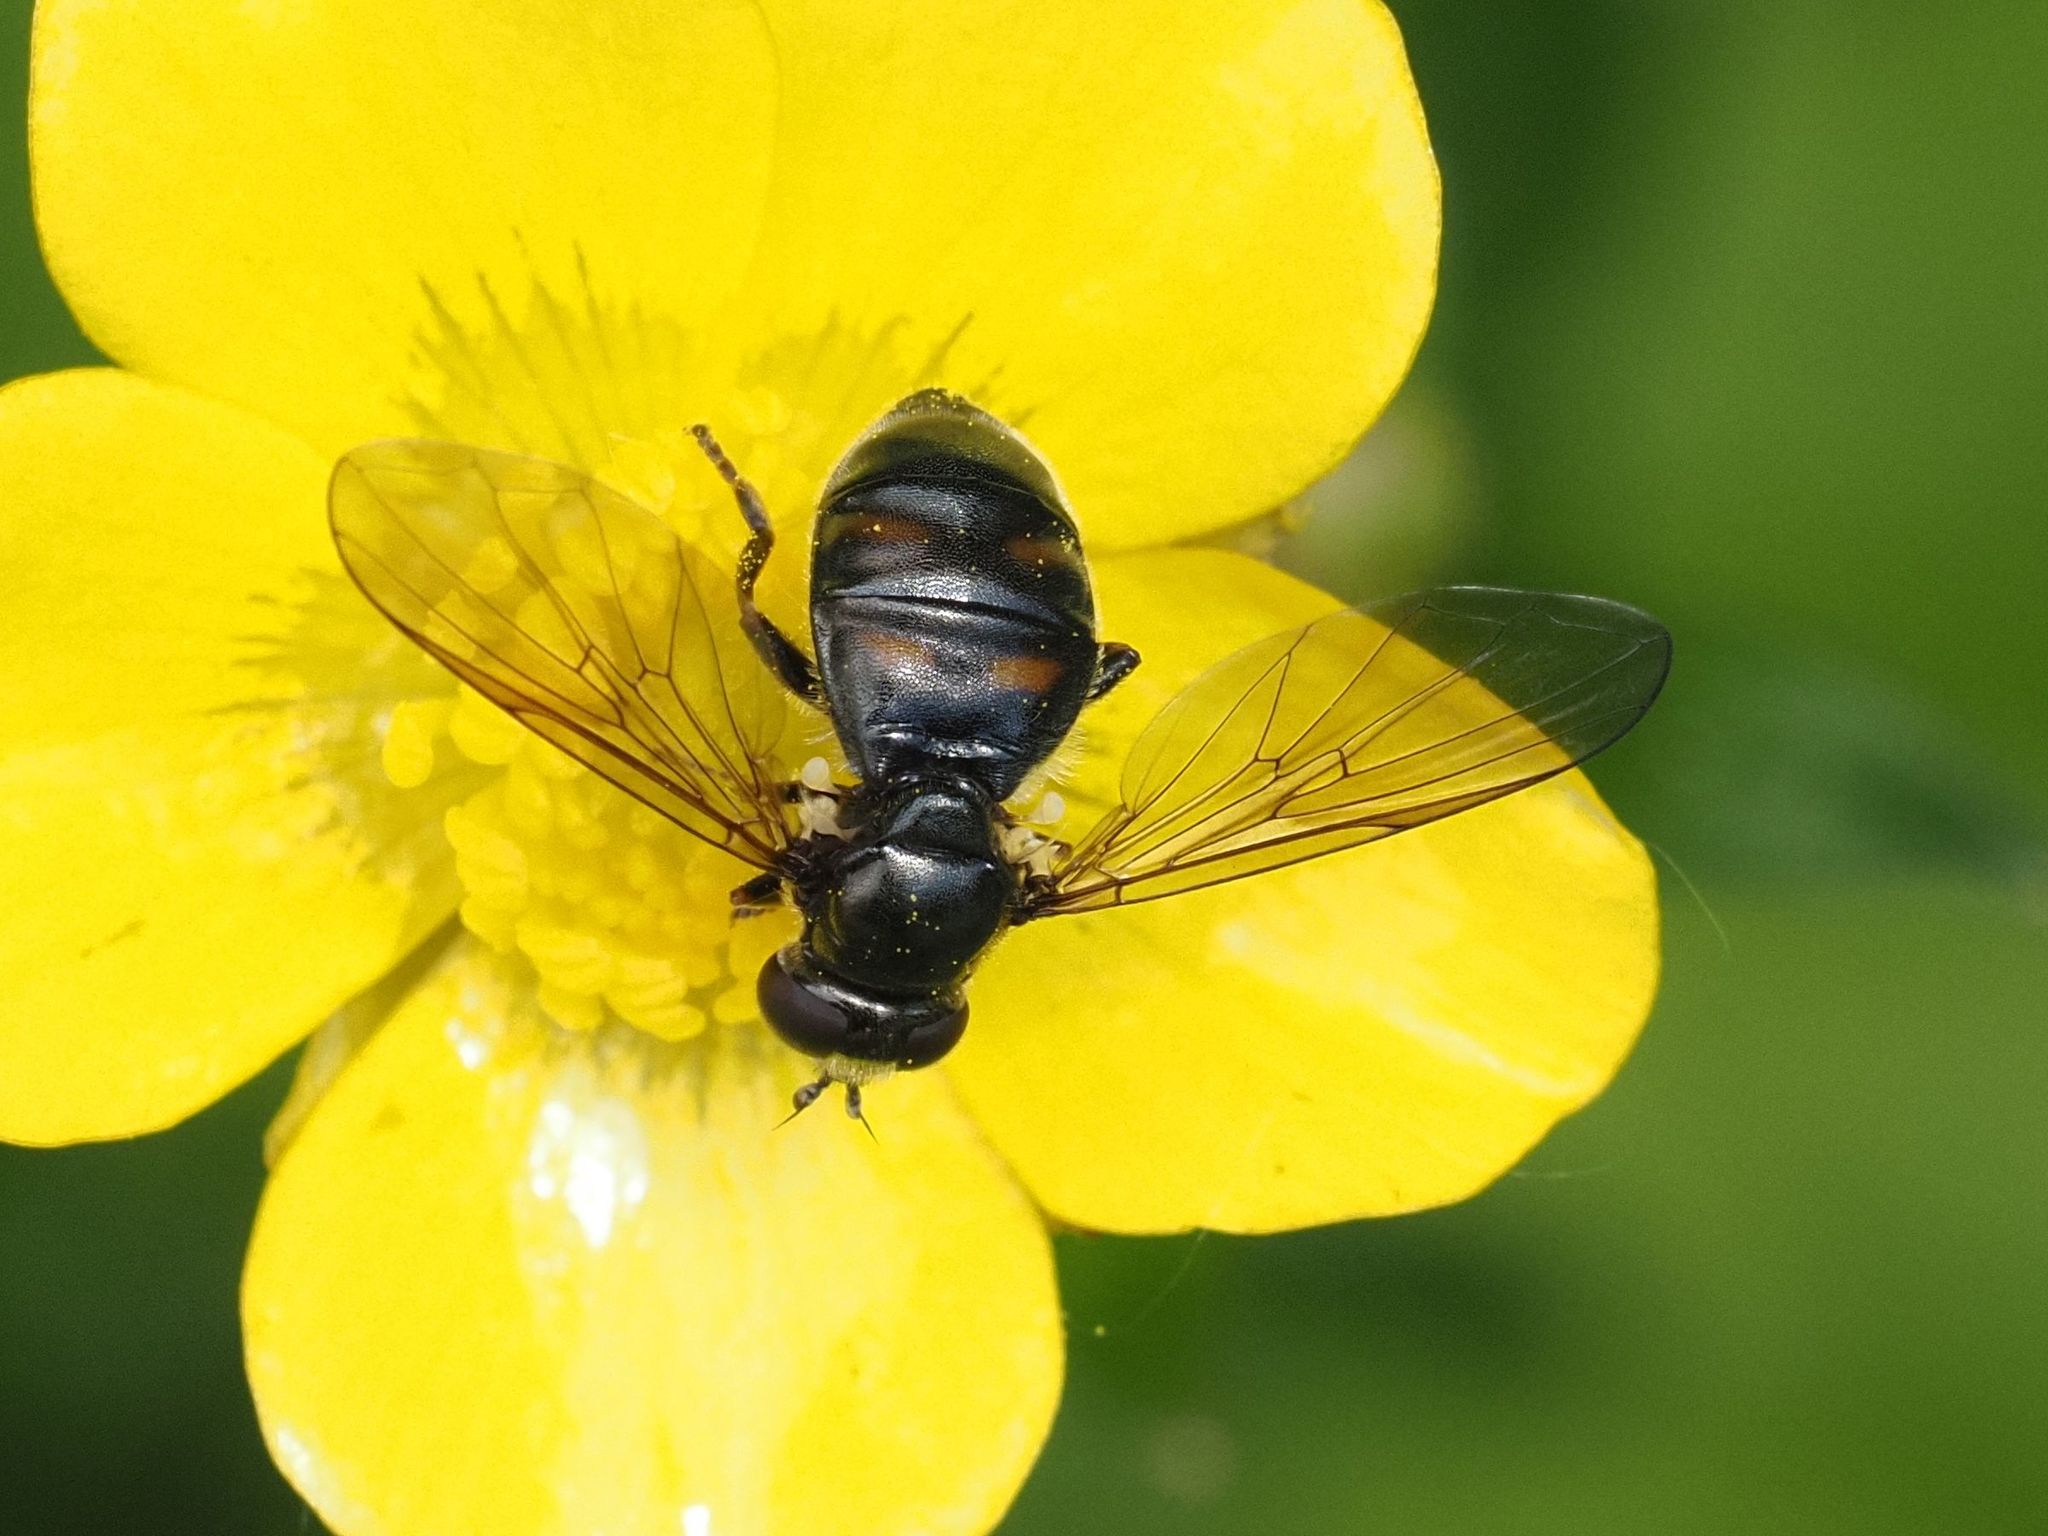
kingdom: Animalia
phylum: Arthropoda
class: Insecta
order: Diptera
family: Syrphidae
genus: Pipiza
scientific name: Pipiza quadrimaculata
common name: Four-spotted pipiza
